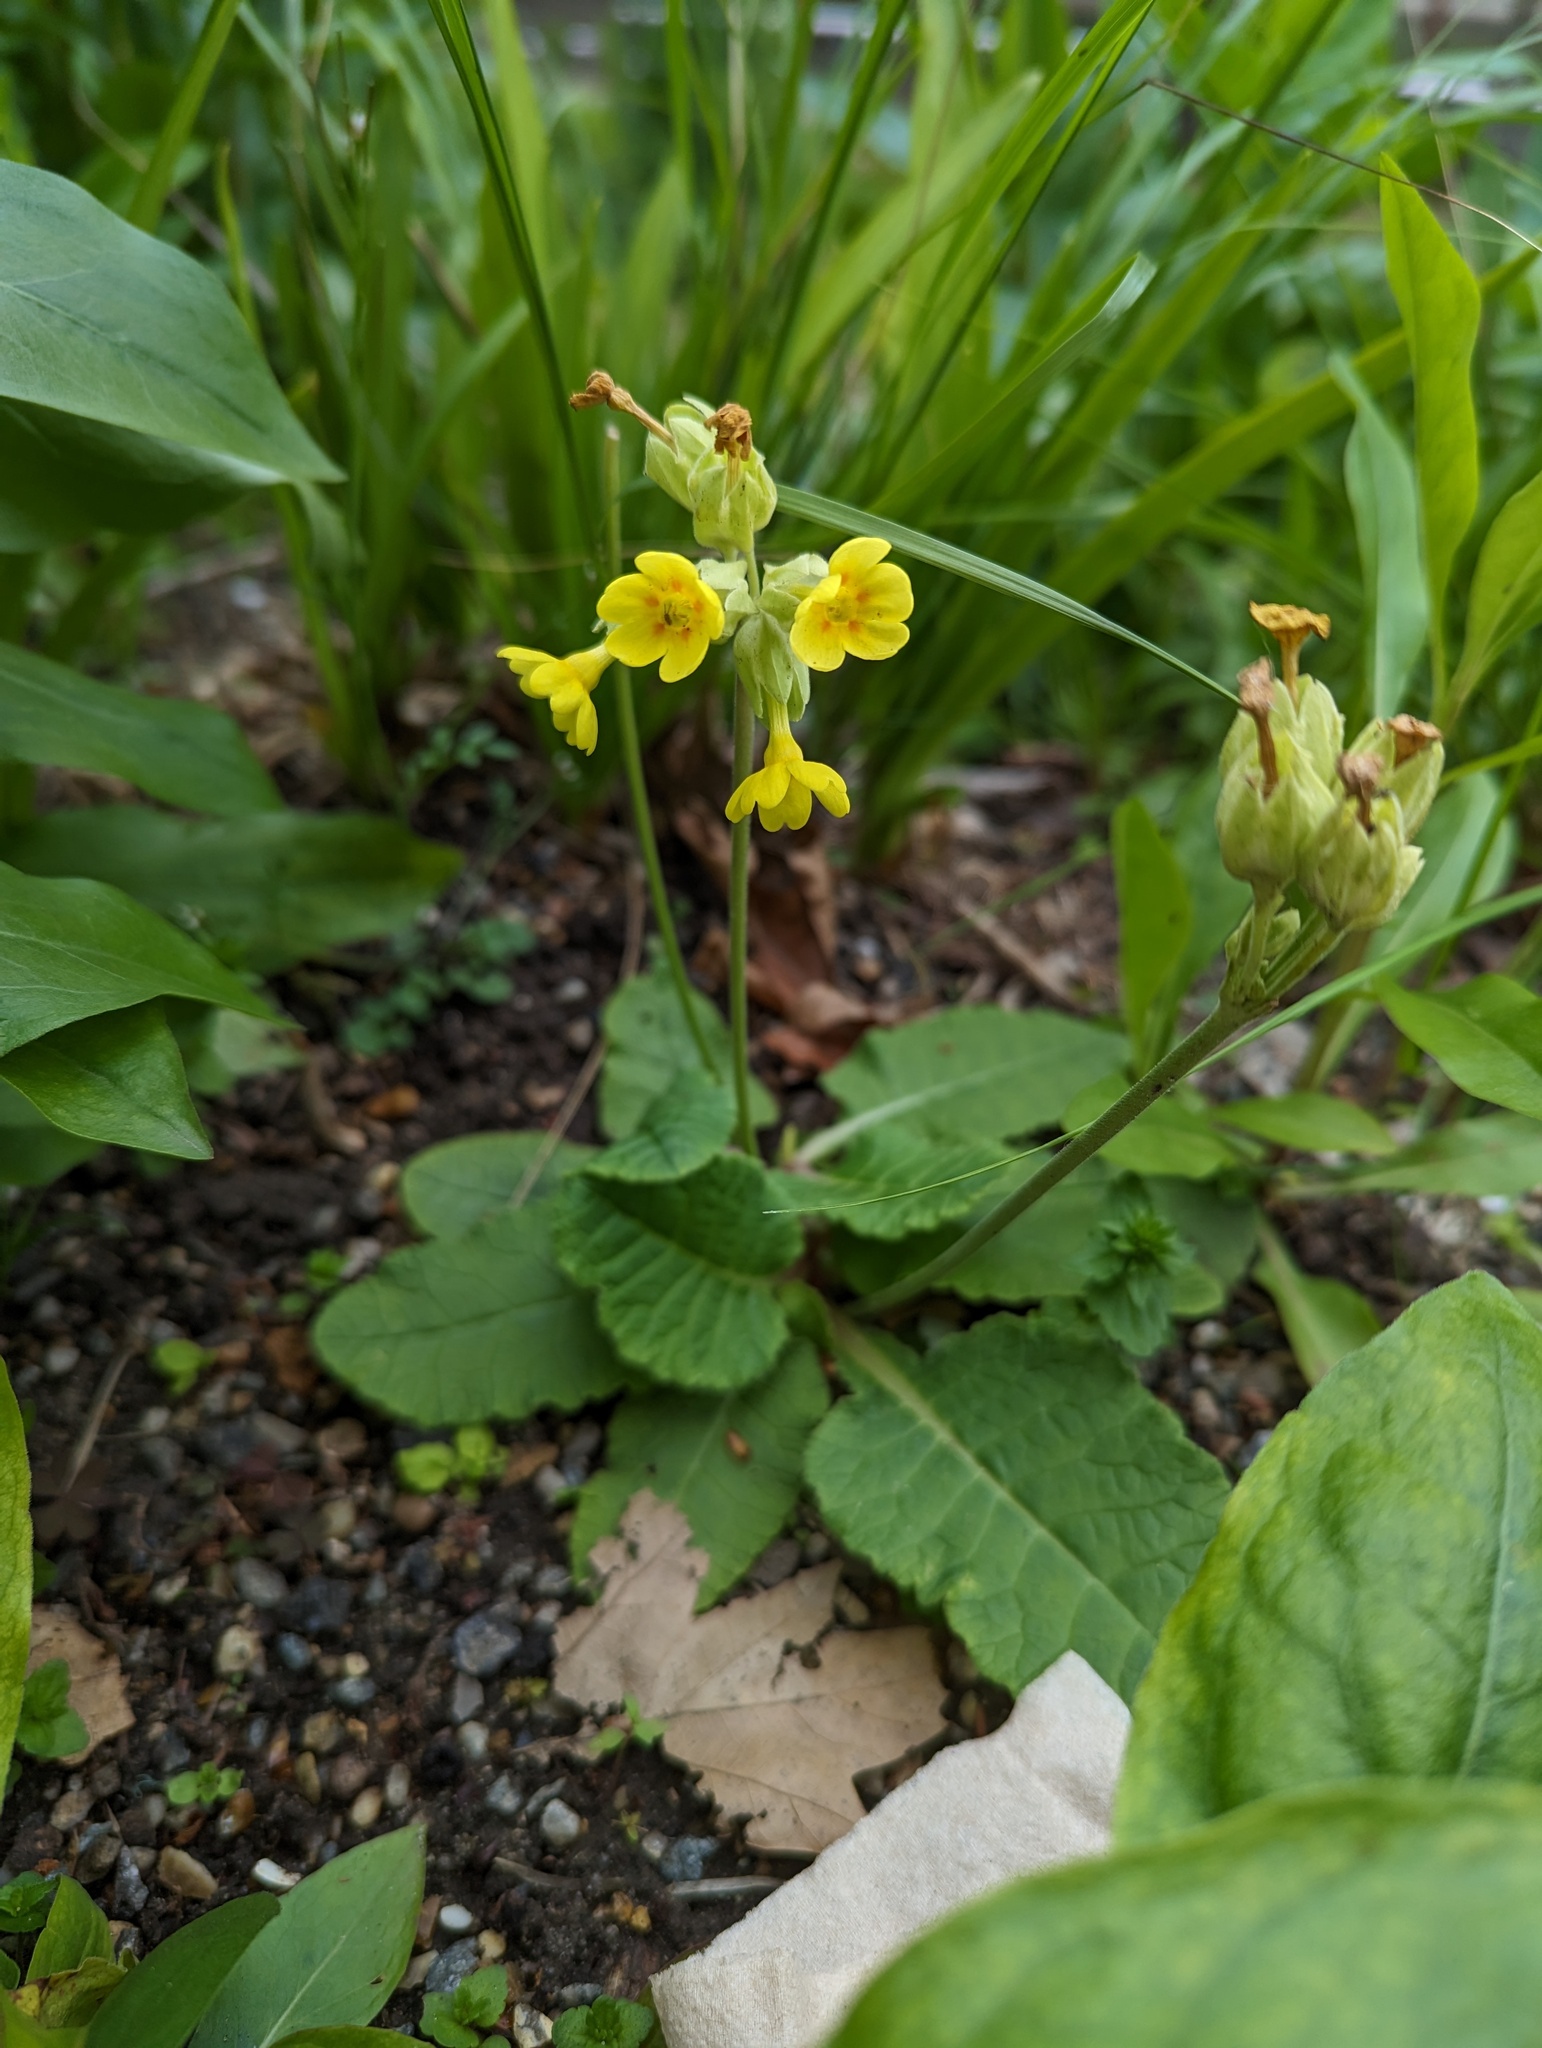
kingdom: Plantae
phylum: Tracheophyta
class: Magnoliopsida
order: Ericales
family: Primulaceae
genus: Primula
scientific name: Primula veris
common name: Cowslip
